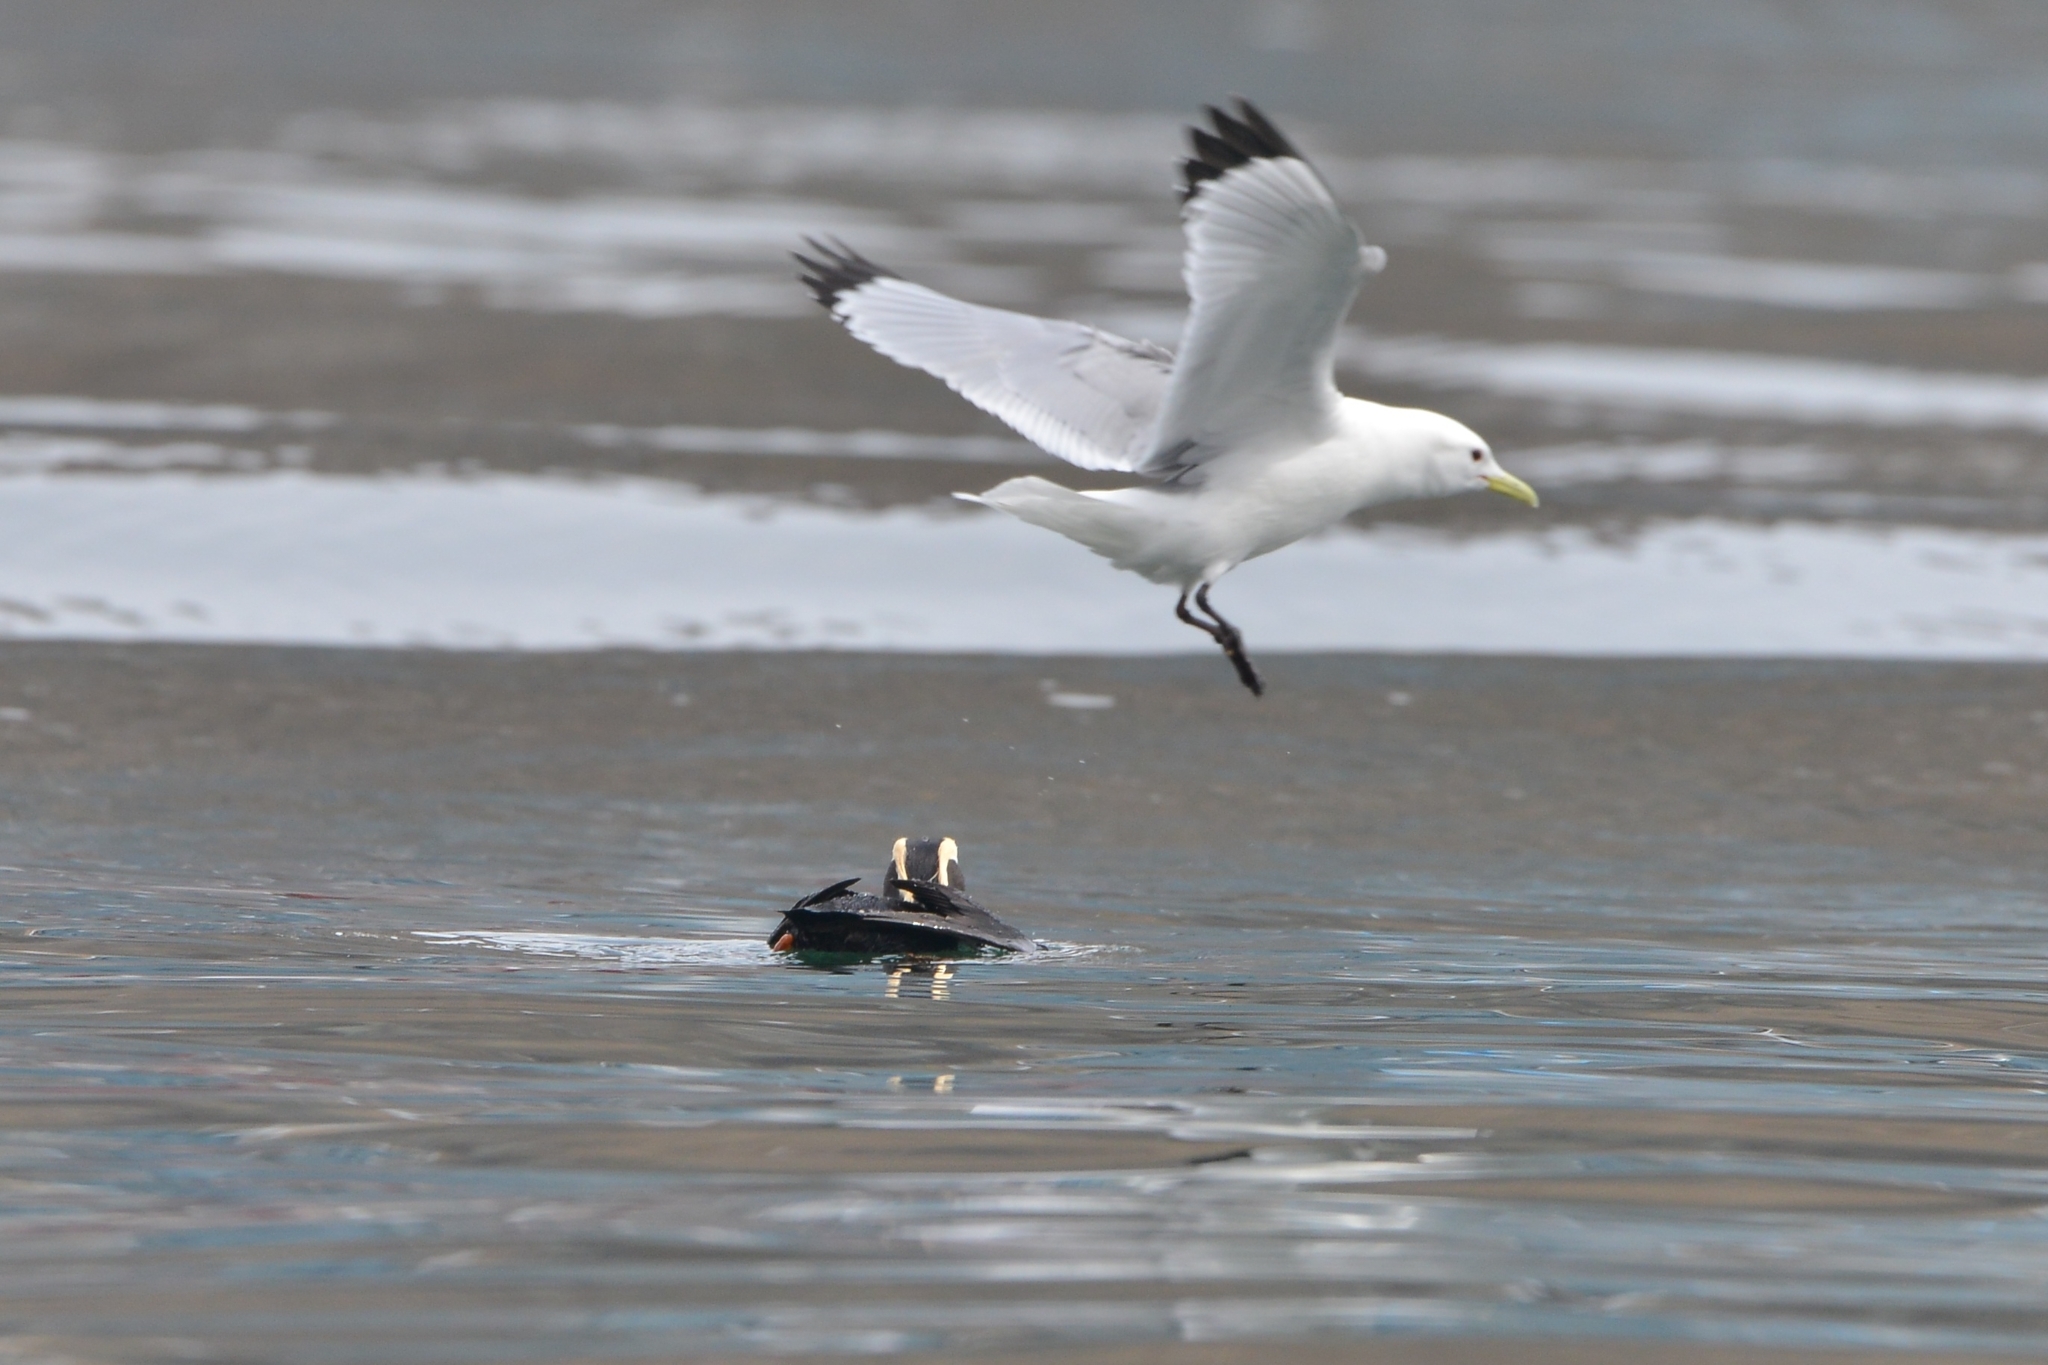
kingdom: Animalia
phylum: Chordata
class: Aves
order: Charadriiformes
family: Laridae
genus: Rissa
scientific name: Rissa tridactyla
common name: Black-legged kittiwake
